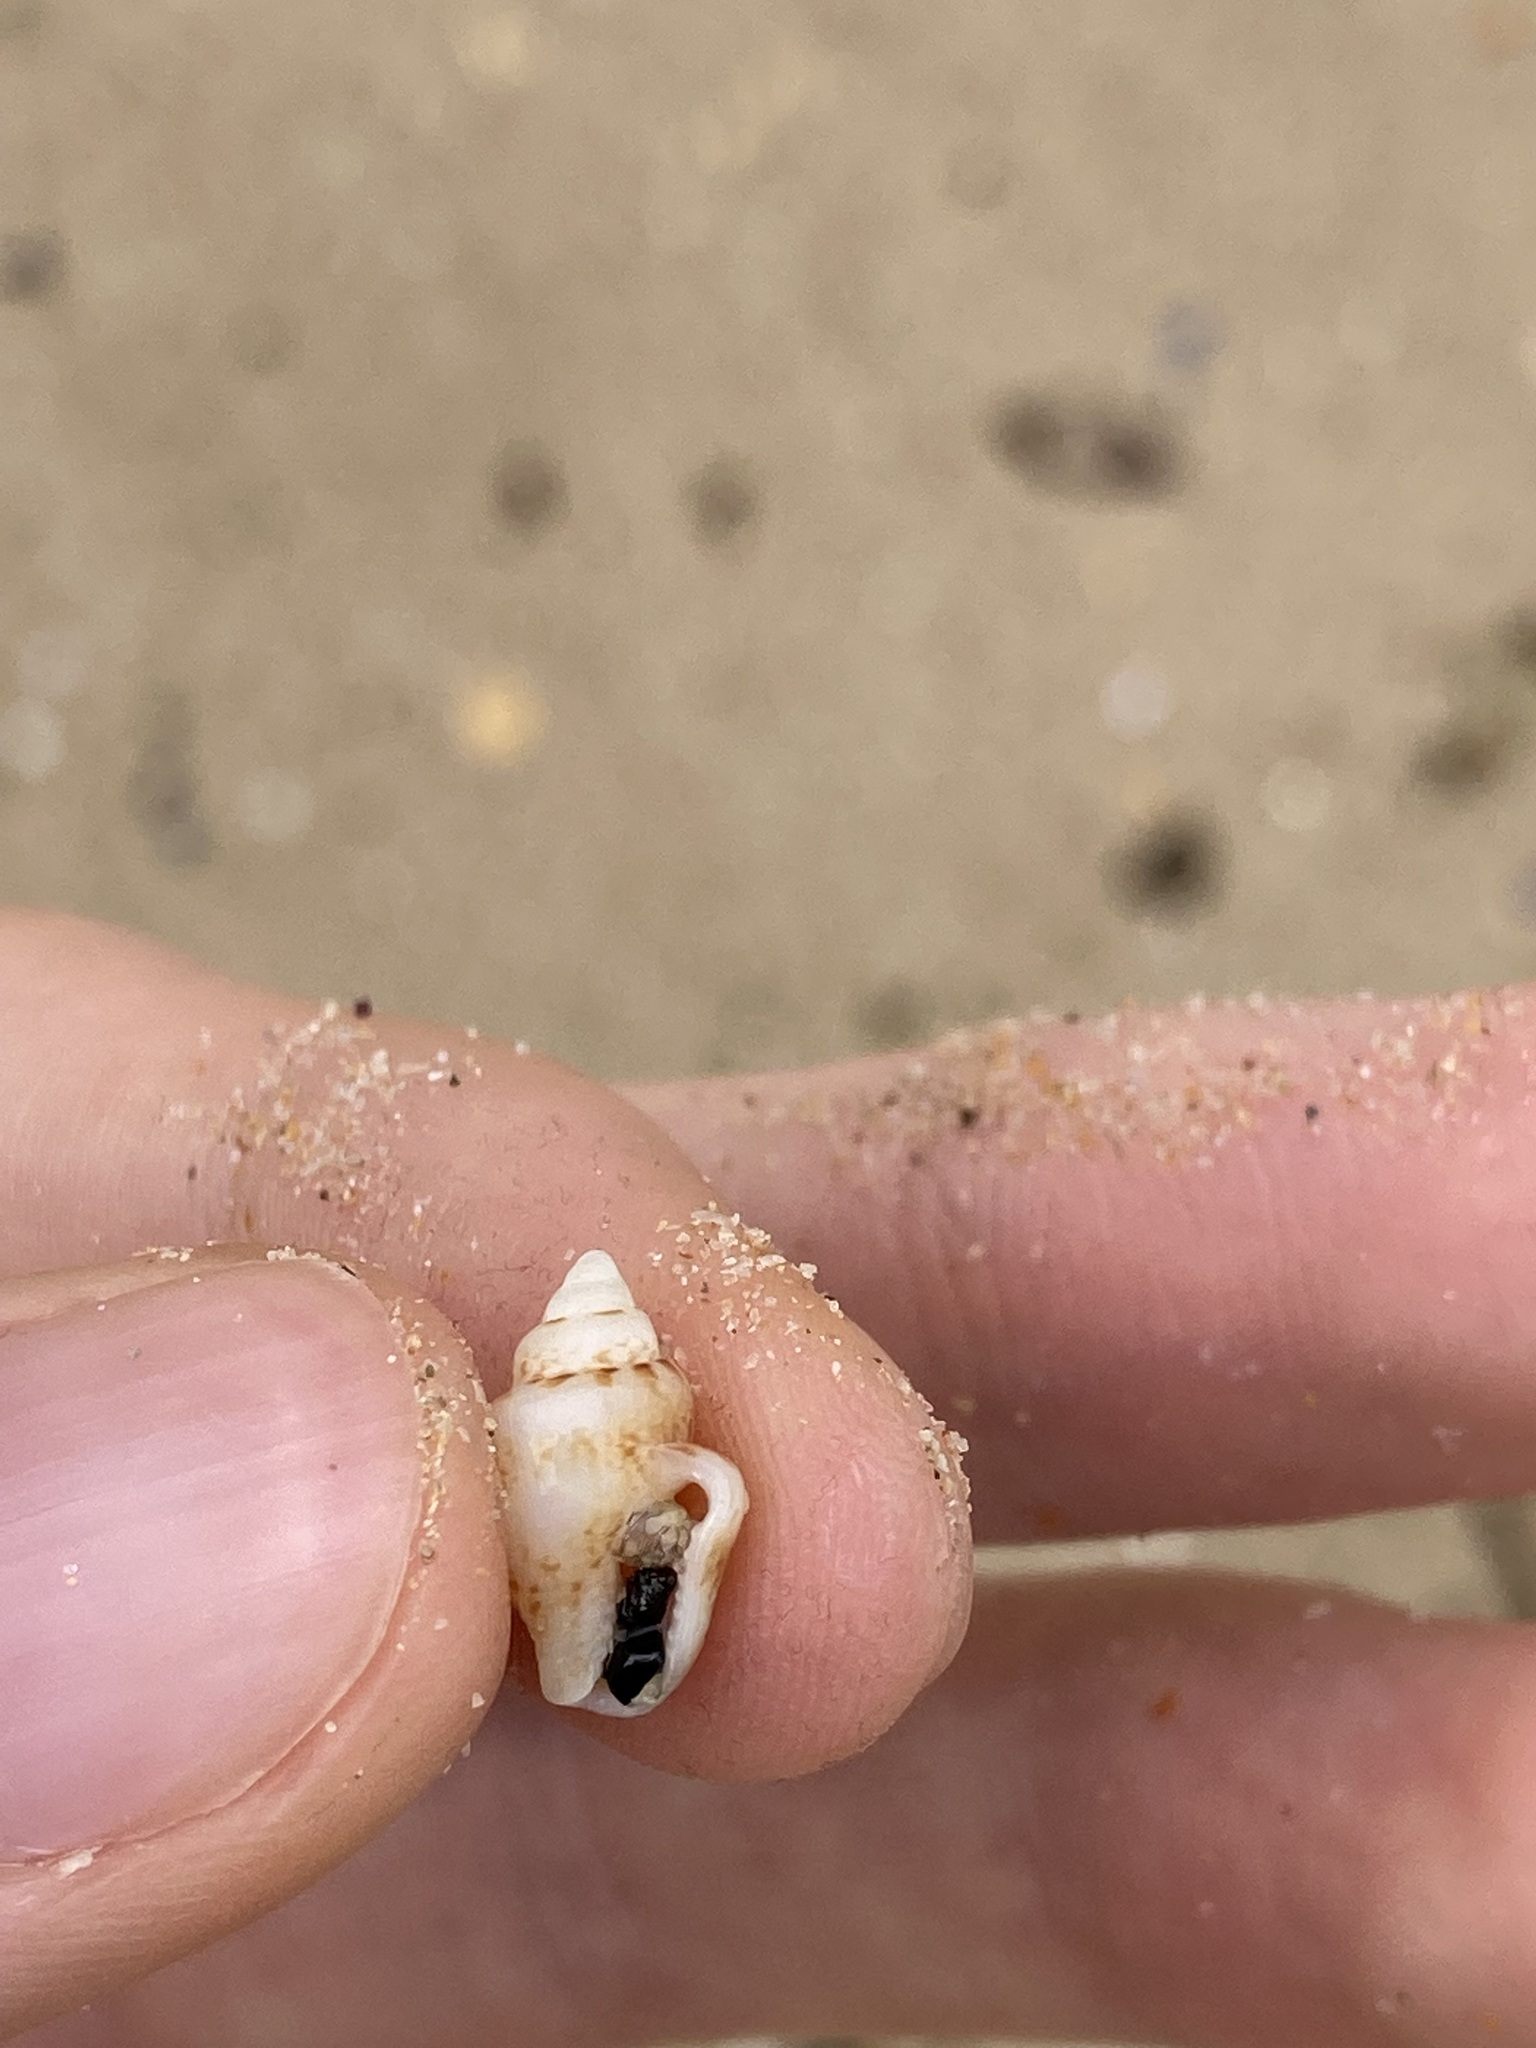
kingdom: Animalia
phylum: Mollusca
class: Gastropoda
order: Neogastropoda
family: Columbellidae
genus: Euplica
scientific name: Euplica scripta
